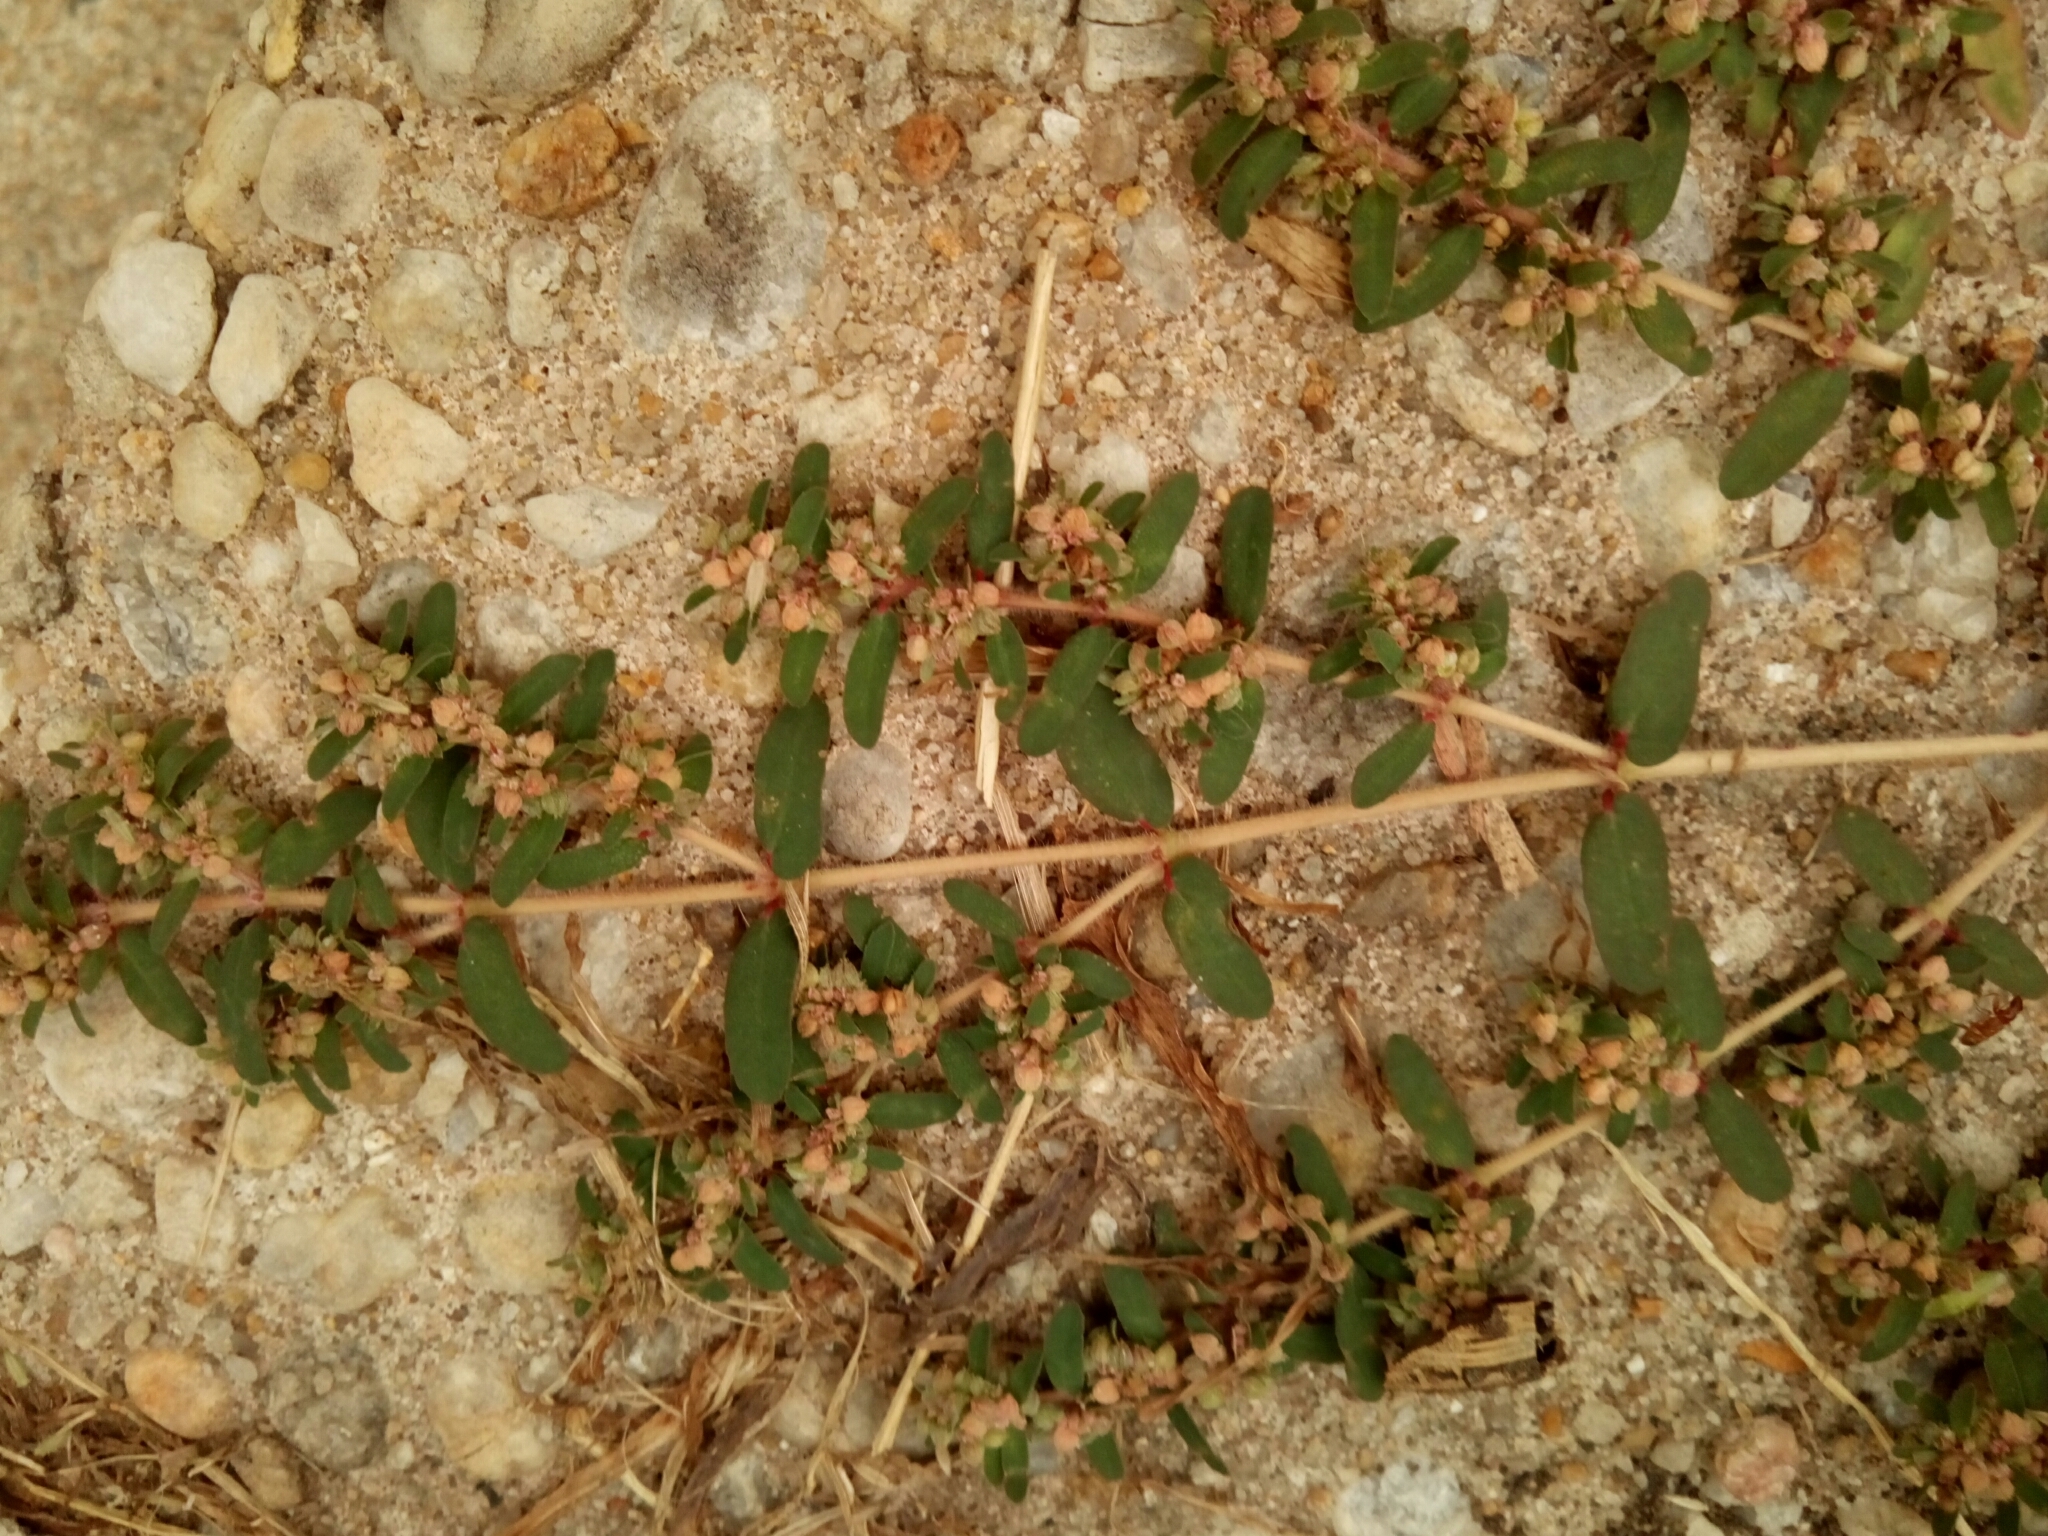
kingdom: Plantae
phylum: Tracheophyta
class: Magnoliopsida
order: Malpighiales
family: Euphorbiaceae
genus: Euphorbia
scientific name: Euphorbia maculata
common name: Spotted spurge
